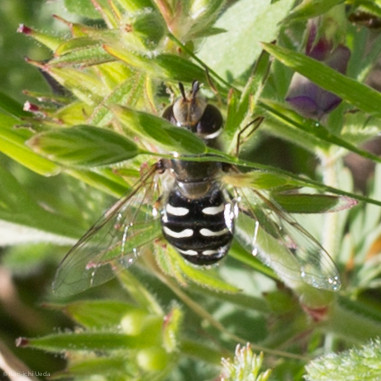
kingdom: Animalia
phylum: Arthropoda
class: Insecta
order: Diptera
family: Syrphidae
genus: Scaeva
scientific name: Scaeva affinis
